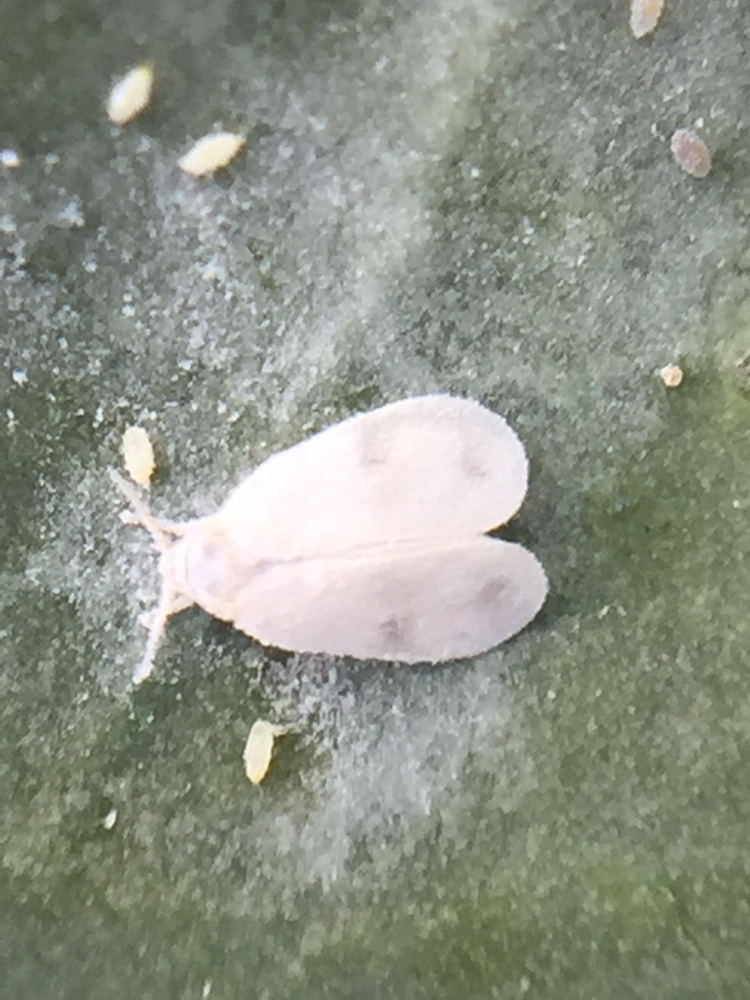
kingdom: Animalia
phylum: Arthropoda
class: Insecta
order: Hemiptera
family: Aleyrodidae
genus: Aleyrodes
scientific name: Aleyrodes proletella
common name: Cabbage whitefly
